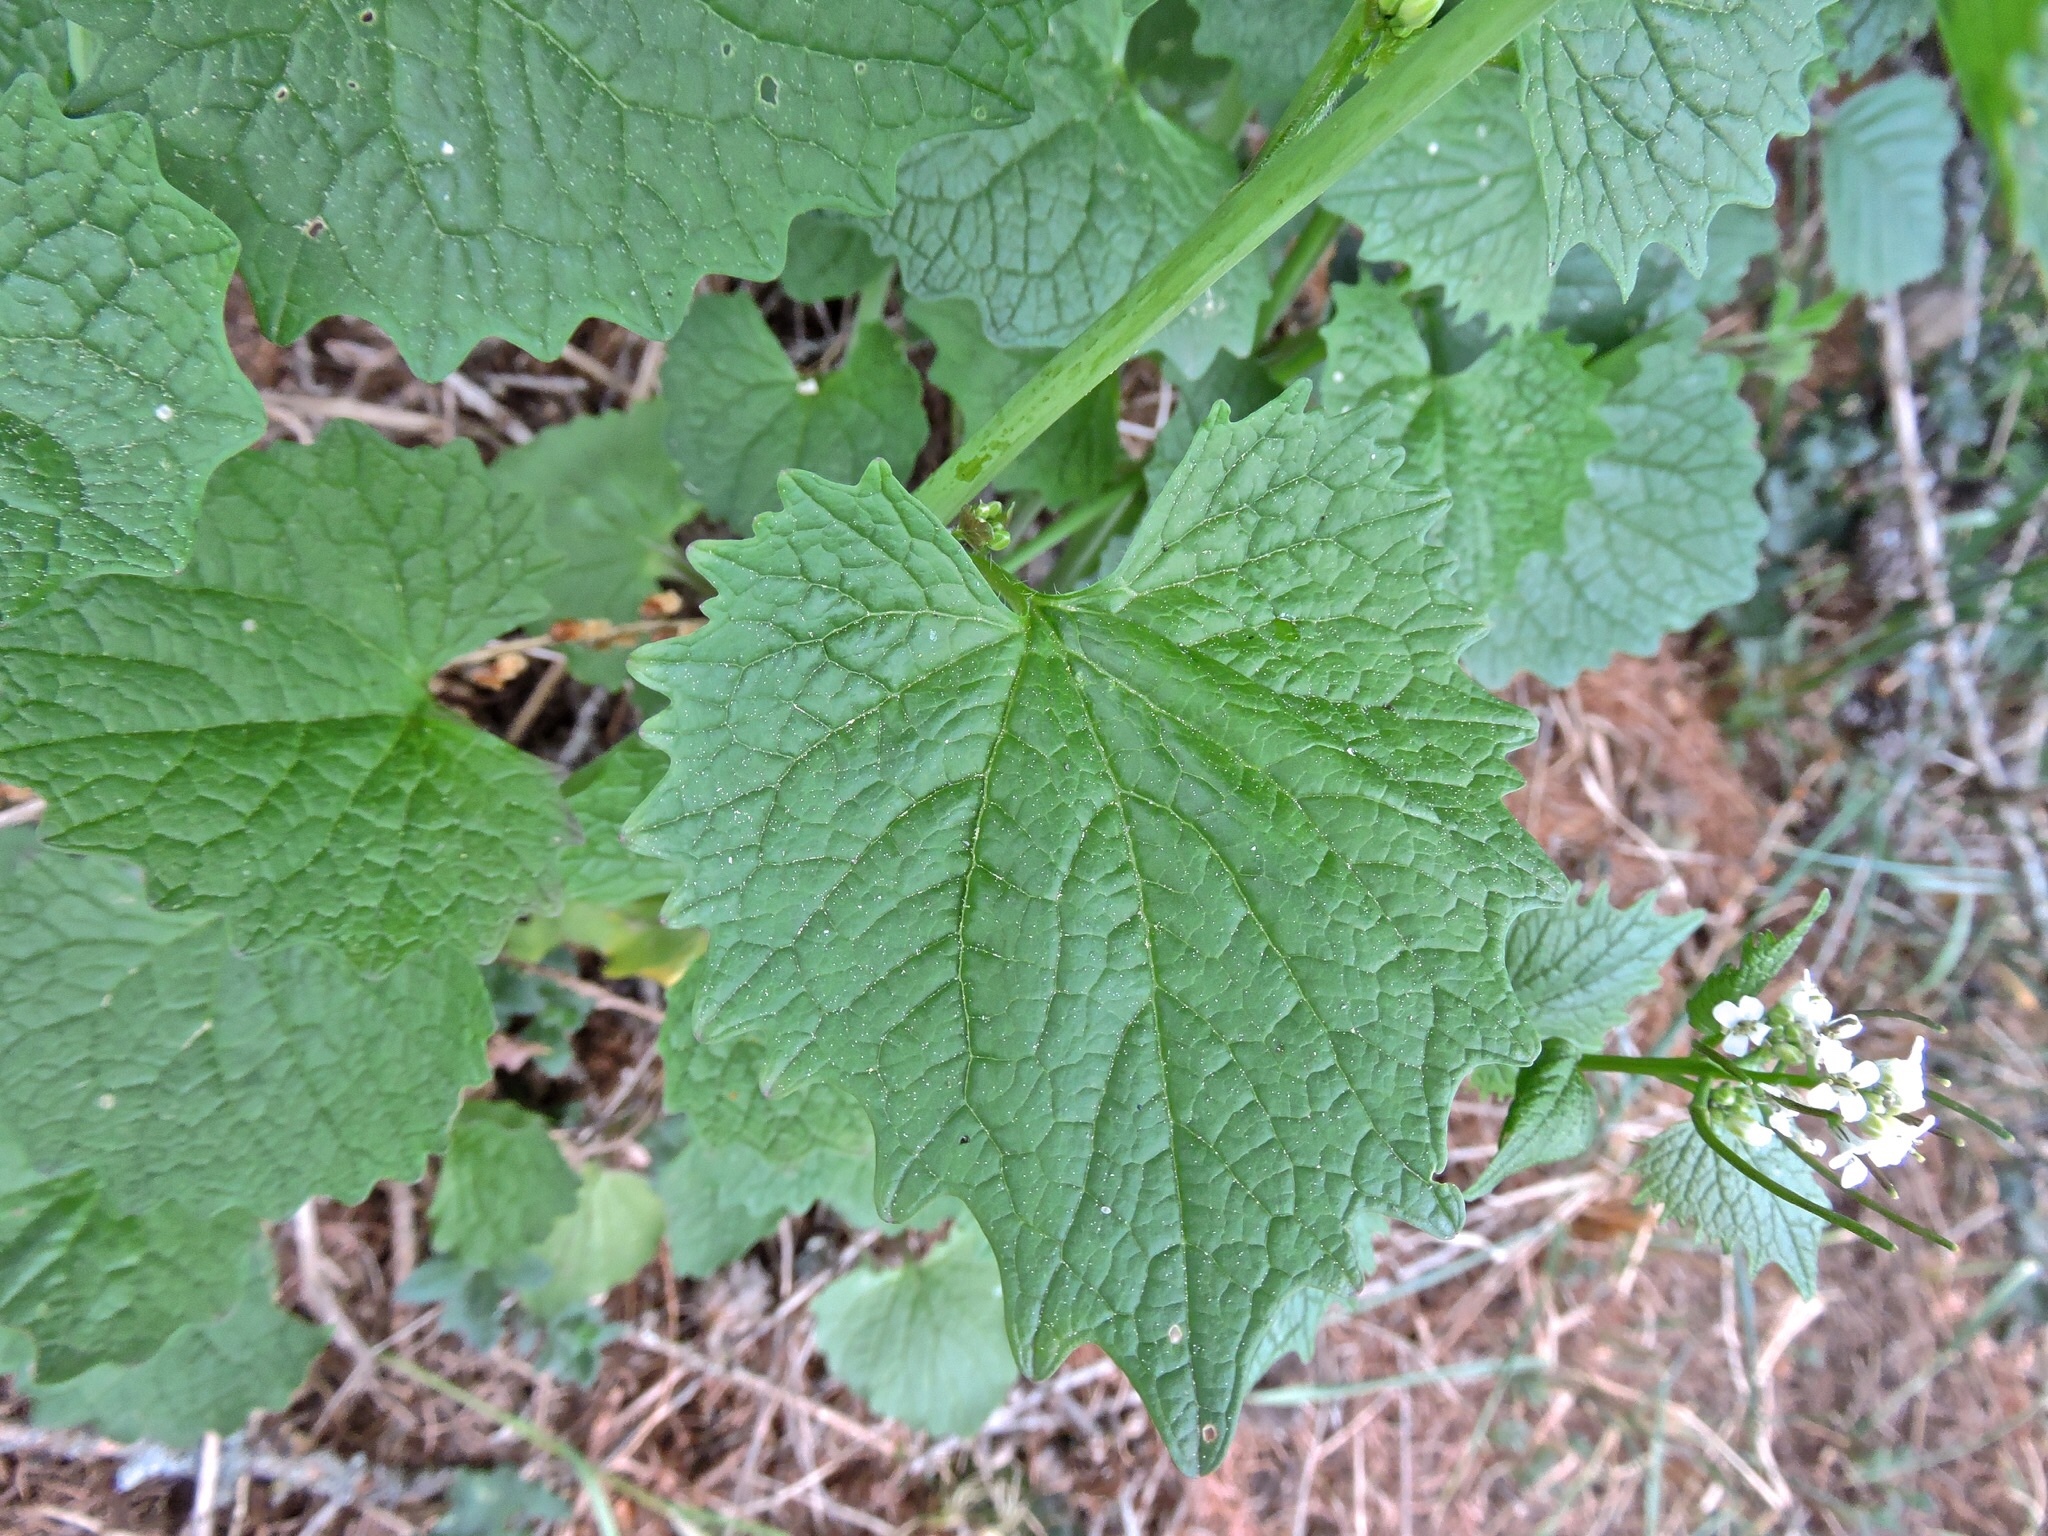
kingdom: Plantae
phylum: Tracheophyta
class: Magnoliopsida
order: Brassicales
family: Brassicaceae
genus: Alliaria
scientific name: Alliaria petiolata
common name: Garlic mustard
